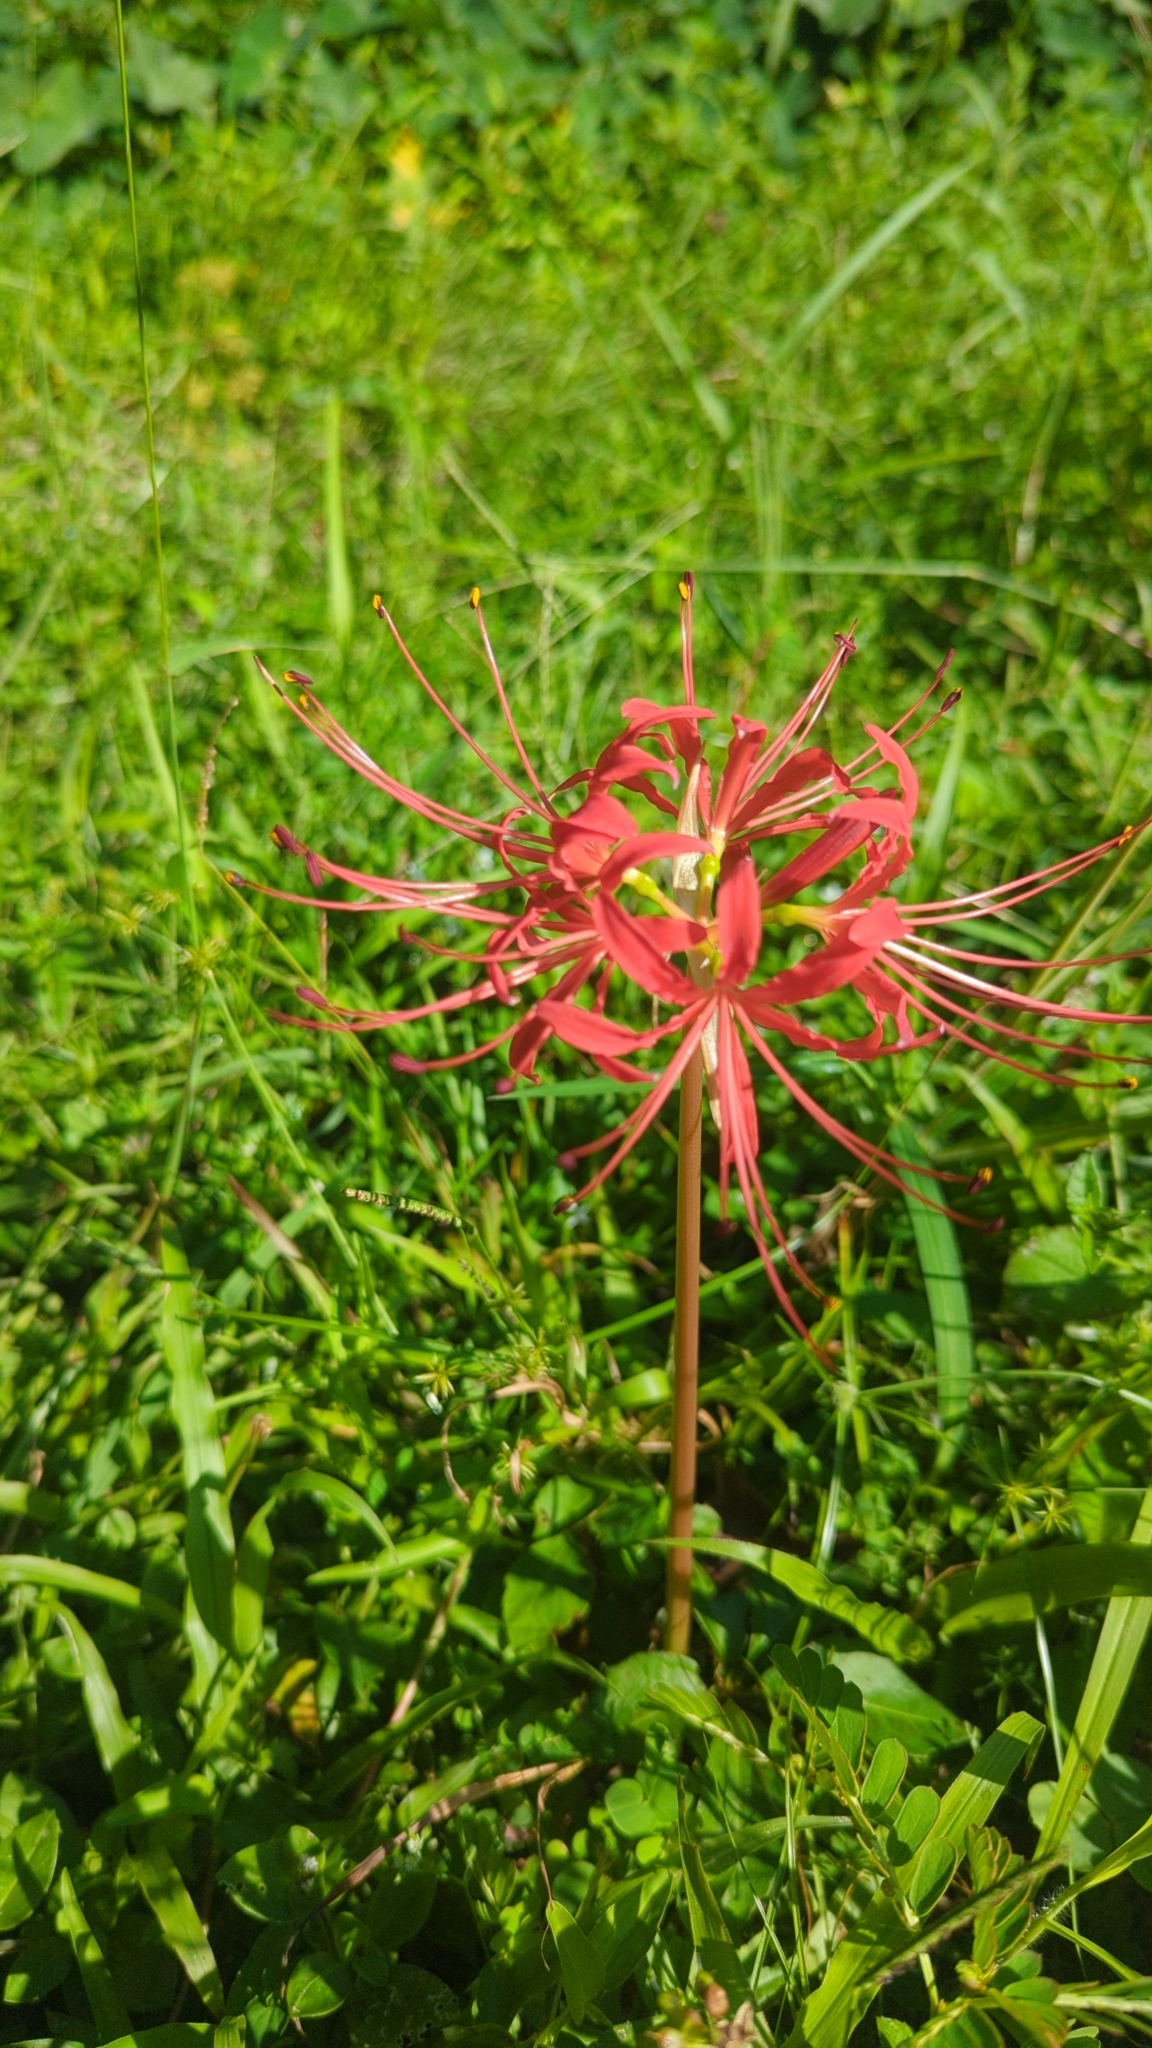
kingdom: Plantae
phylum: Tracheophyta
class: Liliopsida
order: Asparagales
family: Amaryllidaceae
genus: Lycoris
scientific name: Lycoris radiata
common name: Red spider lily
